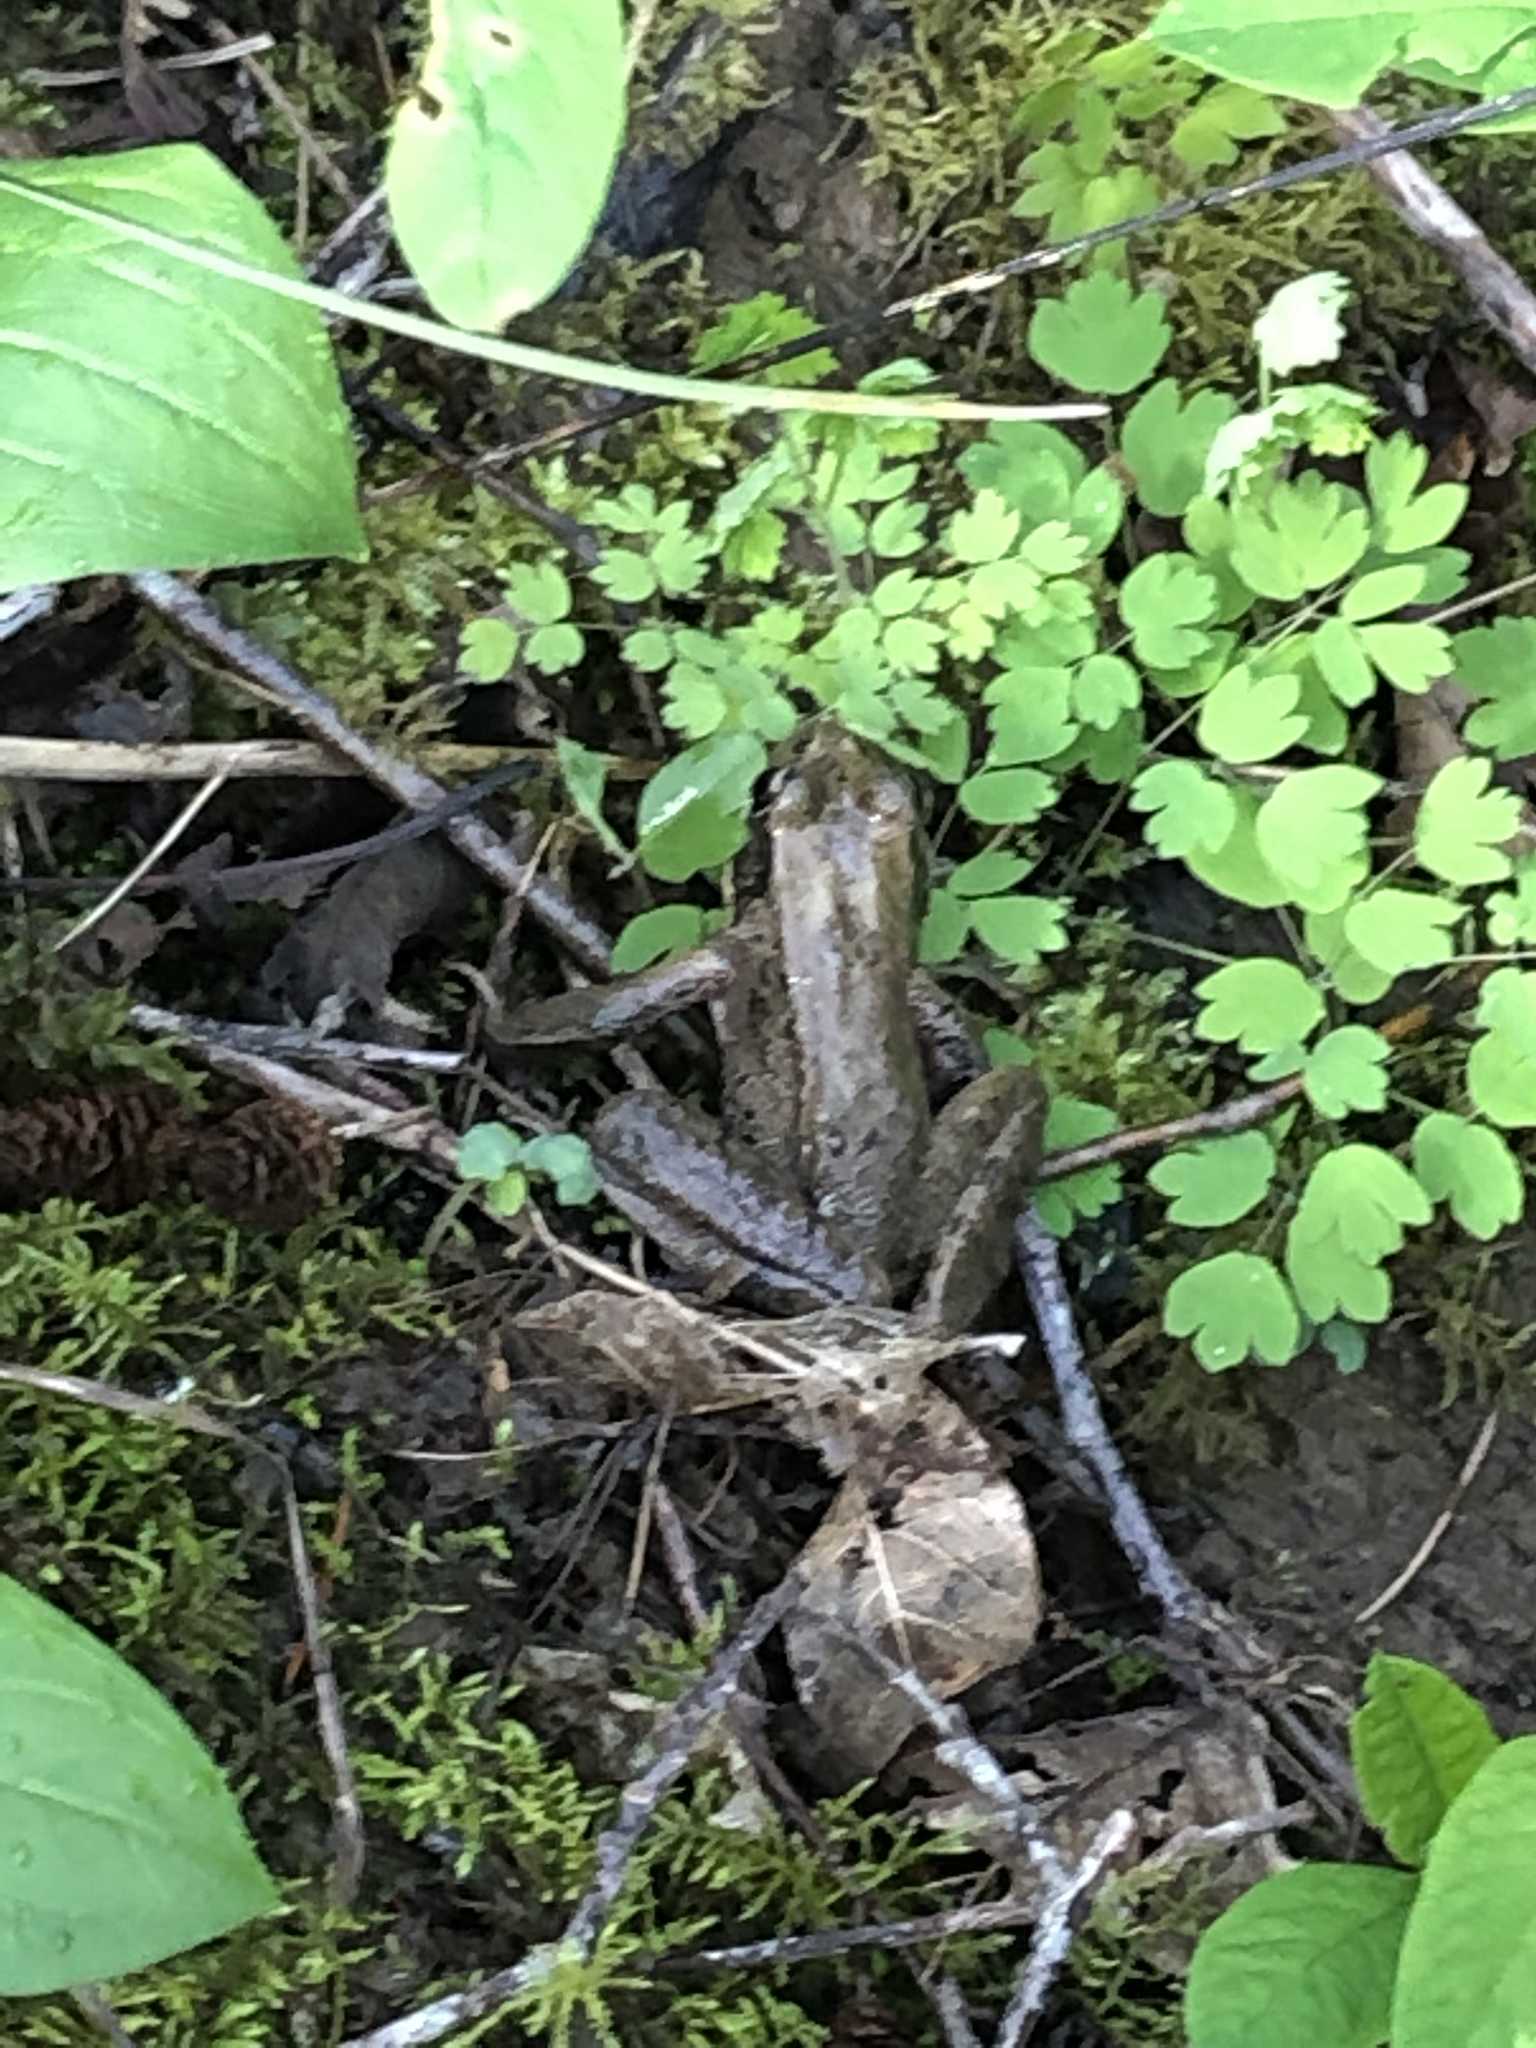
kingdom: Animalia
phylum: Chordata
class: Amphibia
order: Anura
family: Ranidae
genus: Rana
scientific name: Rana aurora
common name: Red-legged frog
